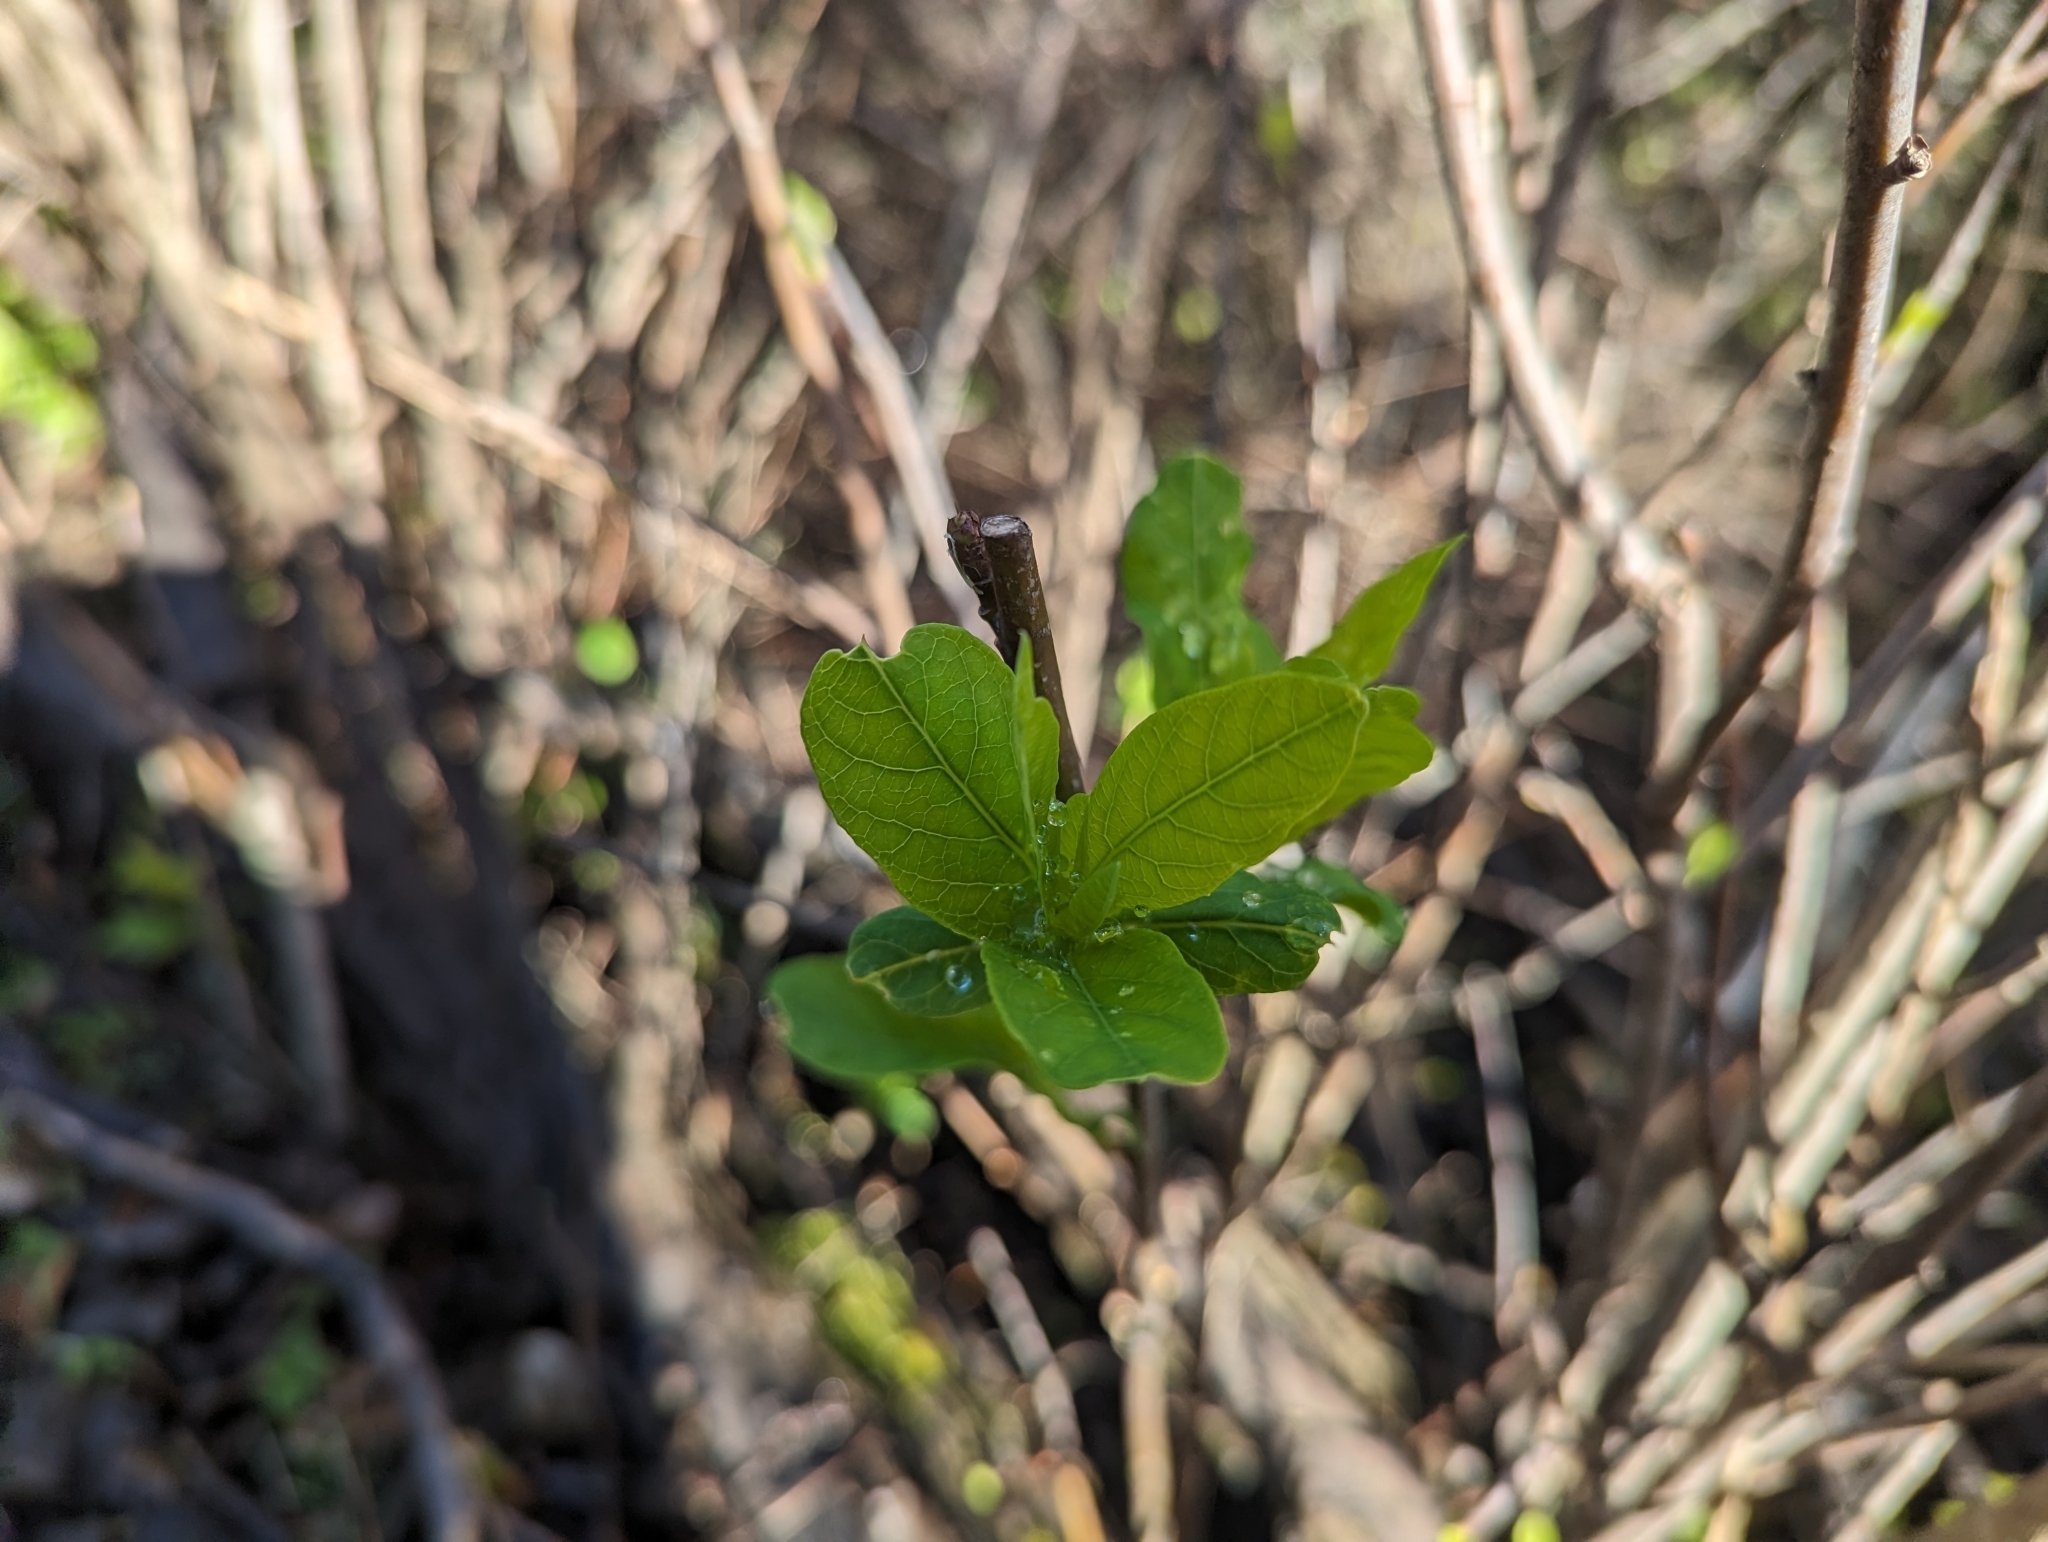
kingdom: Plantae
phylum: Tracheophyta
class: Magnoliopsida
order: Rosales
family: Rosaceae
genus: Oemleria
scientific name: Oemleria cerasiformis
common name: Osoberry
